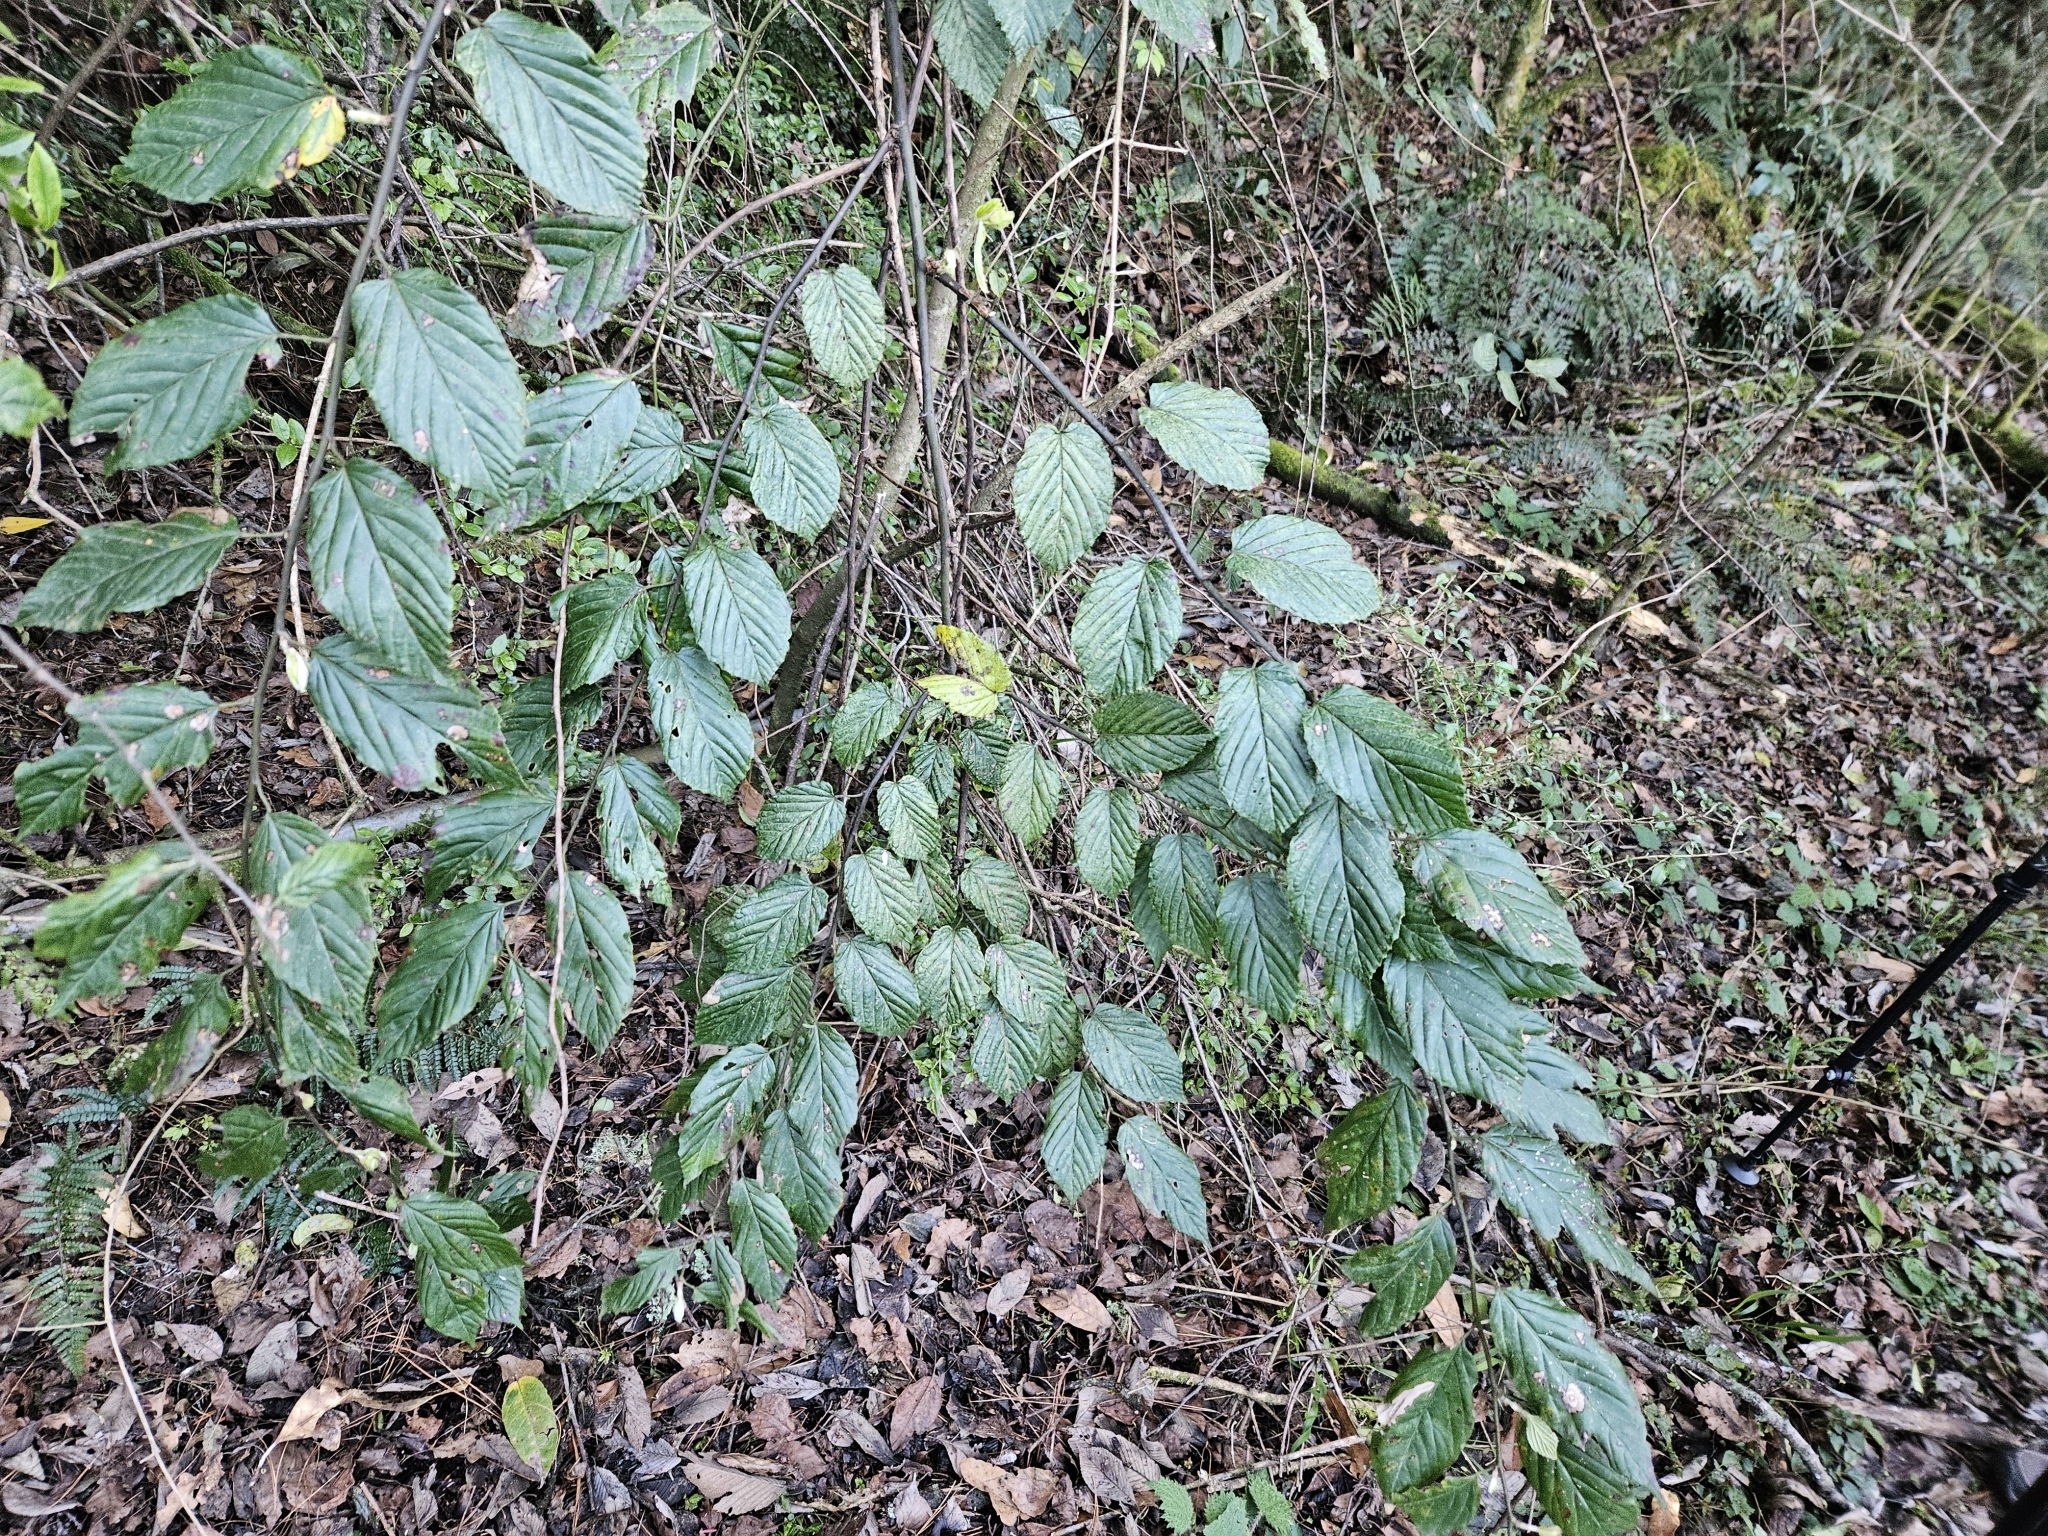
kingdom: Plantae
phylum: Tracheophyta
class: Magnoliopsida
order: Rosales
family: Rosaceae
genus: Rubus
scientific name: Rubus kawakamii
